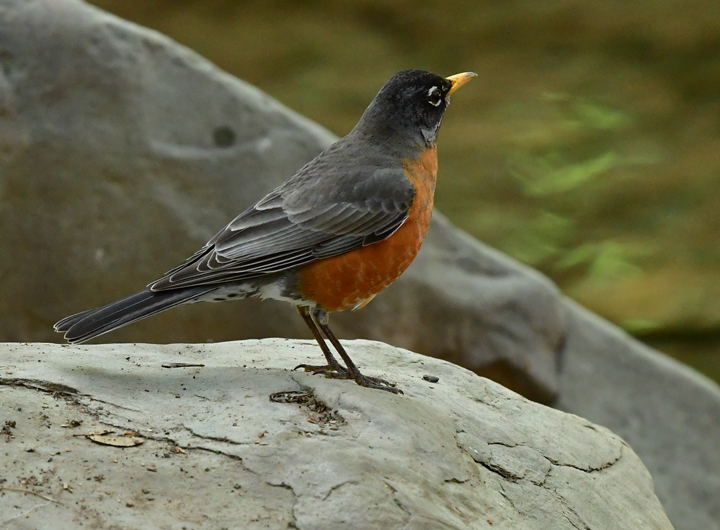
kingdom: Animalia
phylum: Chordata
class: Aves
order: Passeriformes
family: Turdidae
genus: Turdus
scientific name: Turdus migratorius
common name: American robin
